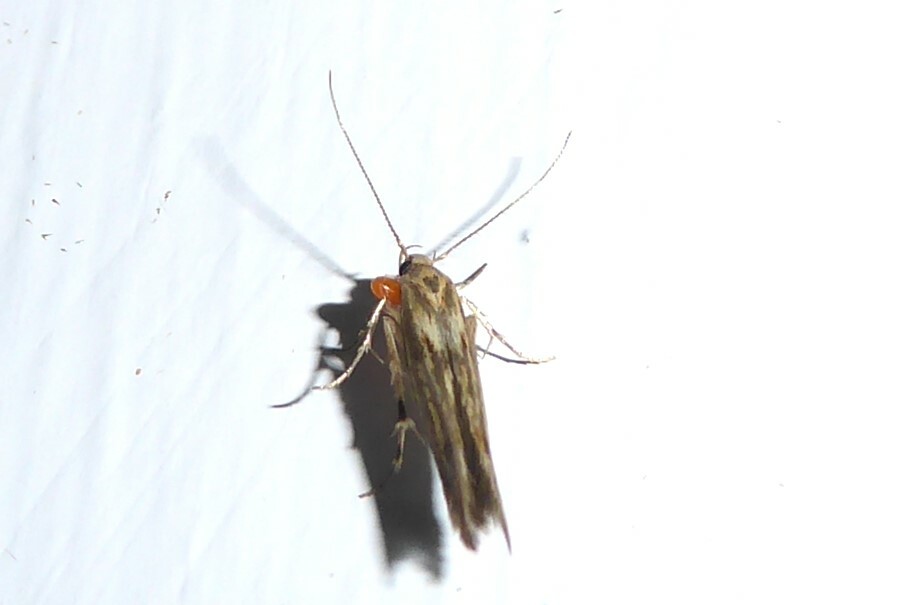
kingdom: Animalia
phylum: Arthropoda
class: Insecta
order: Lepidoptera
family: Stathmopodidae
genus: Stathmopoda
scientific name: Stathmopoda plumbiflua
